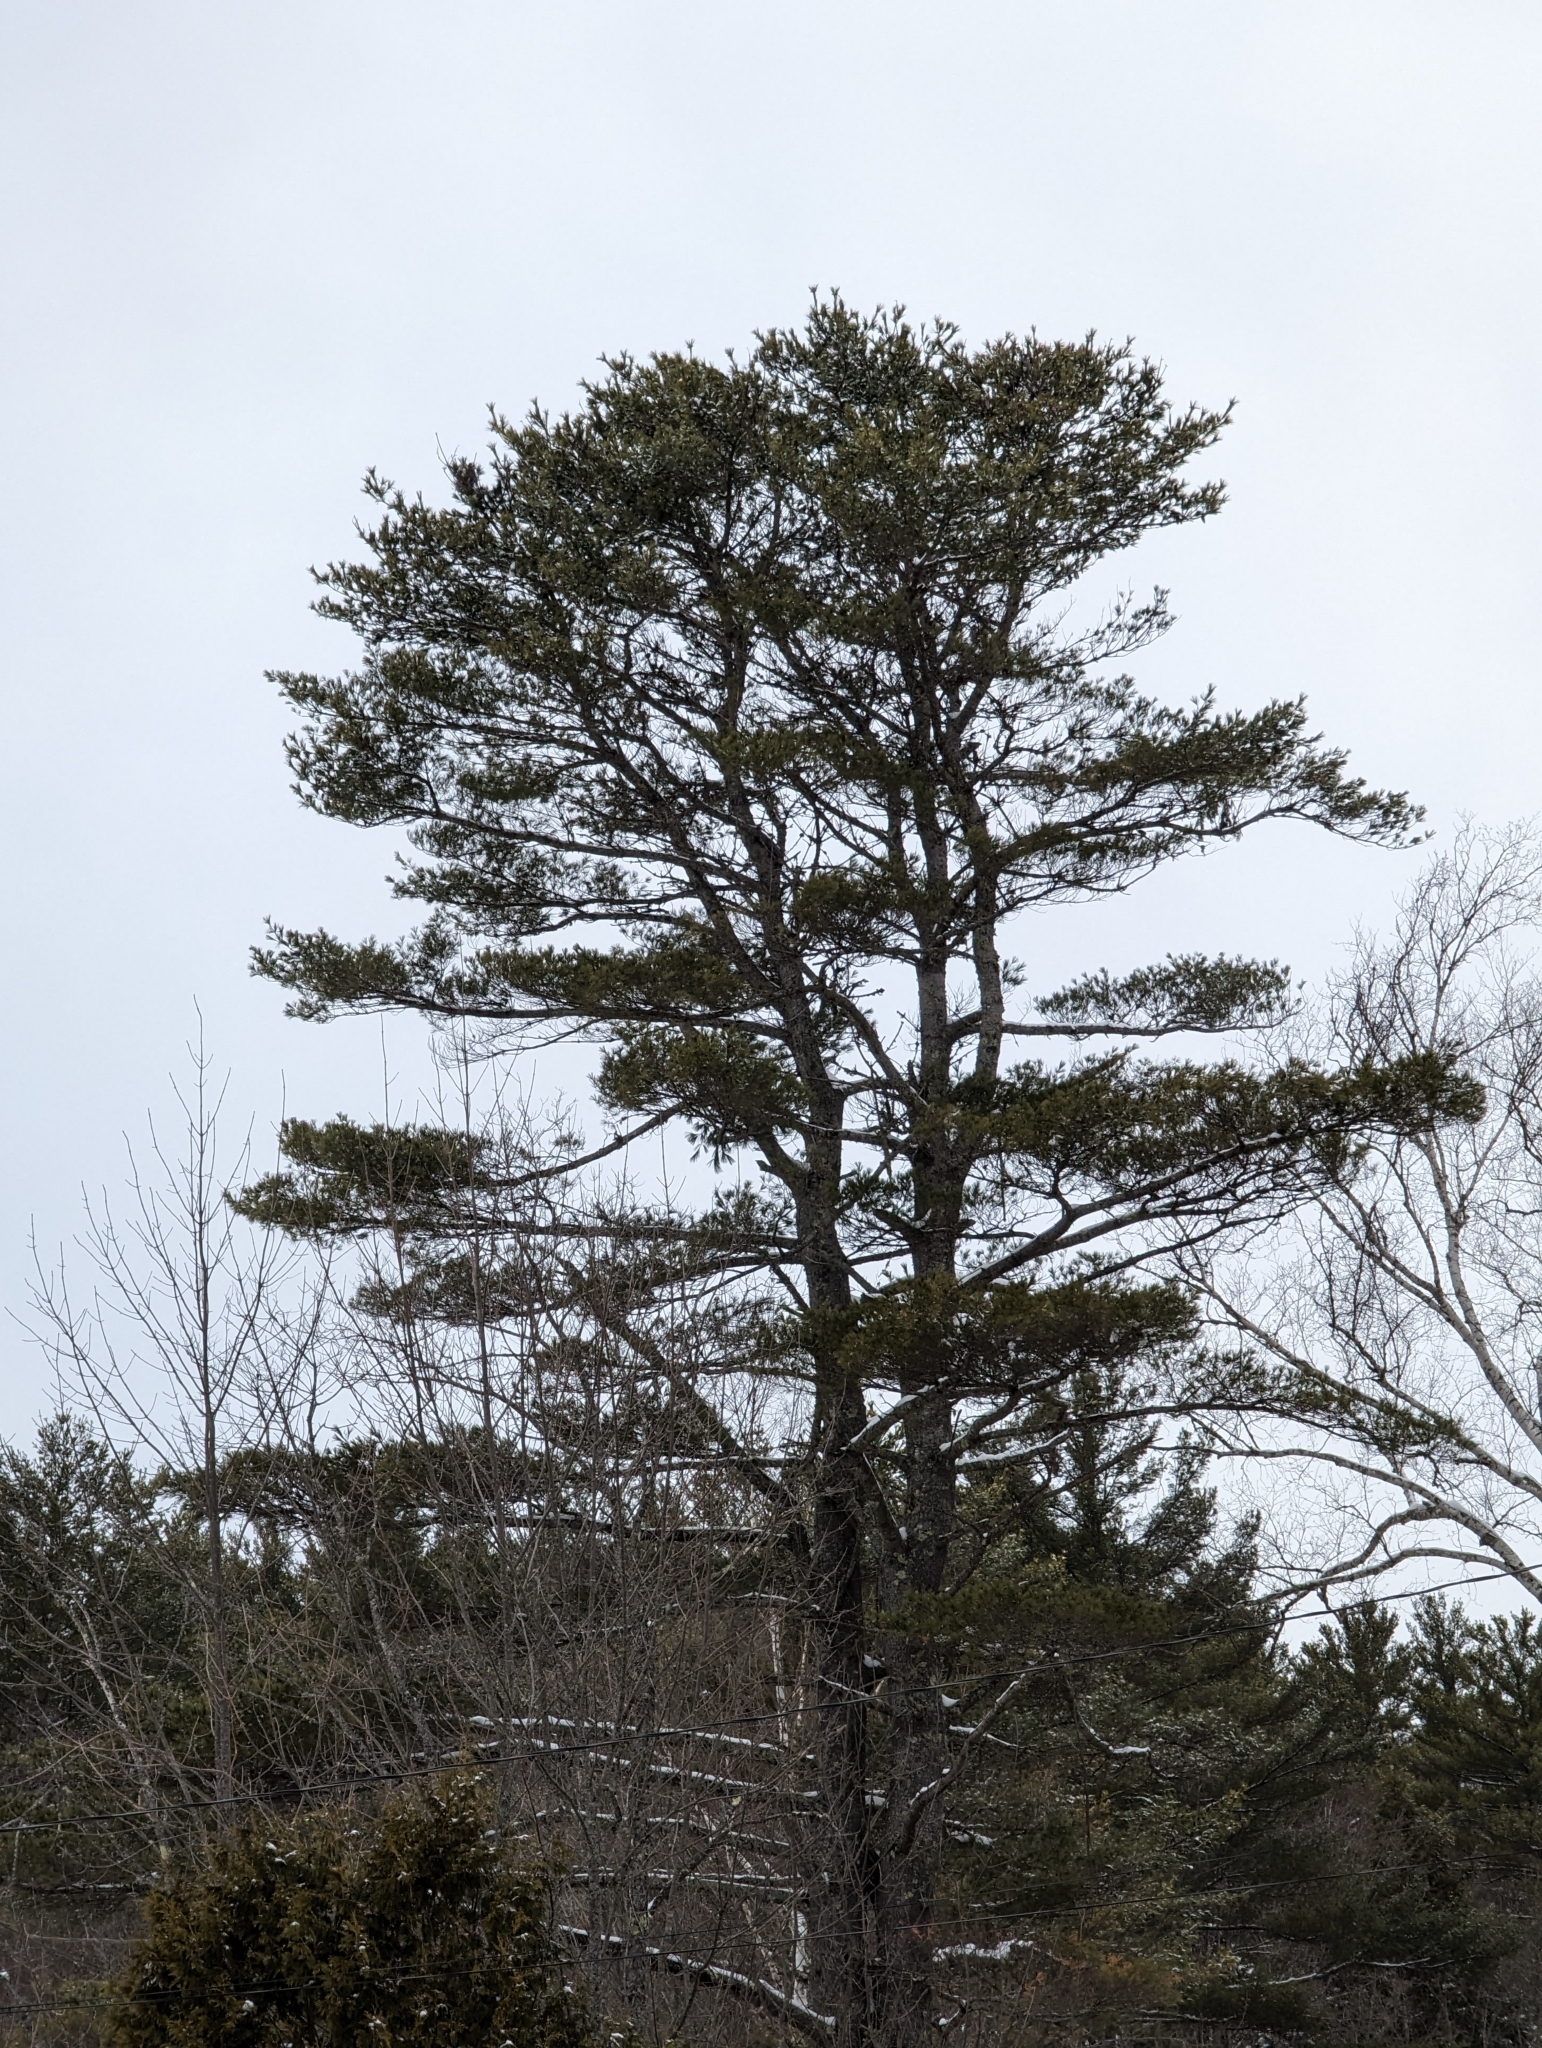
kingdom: Plantae
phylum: Tracheophyta
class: Pinopsida
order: Pinales
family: Pinaceae
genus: Pinus
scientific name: Pinus strobus
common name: Weymouth pine
